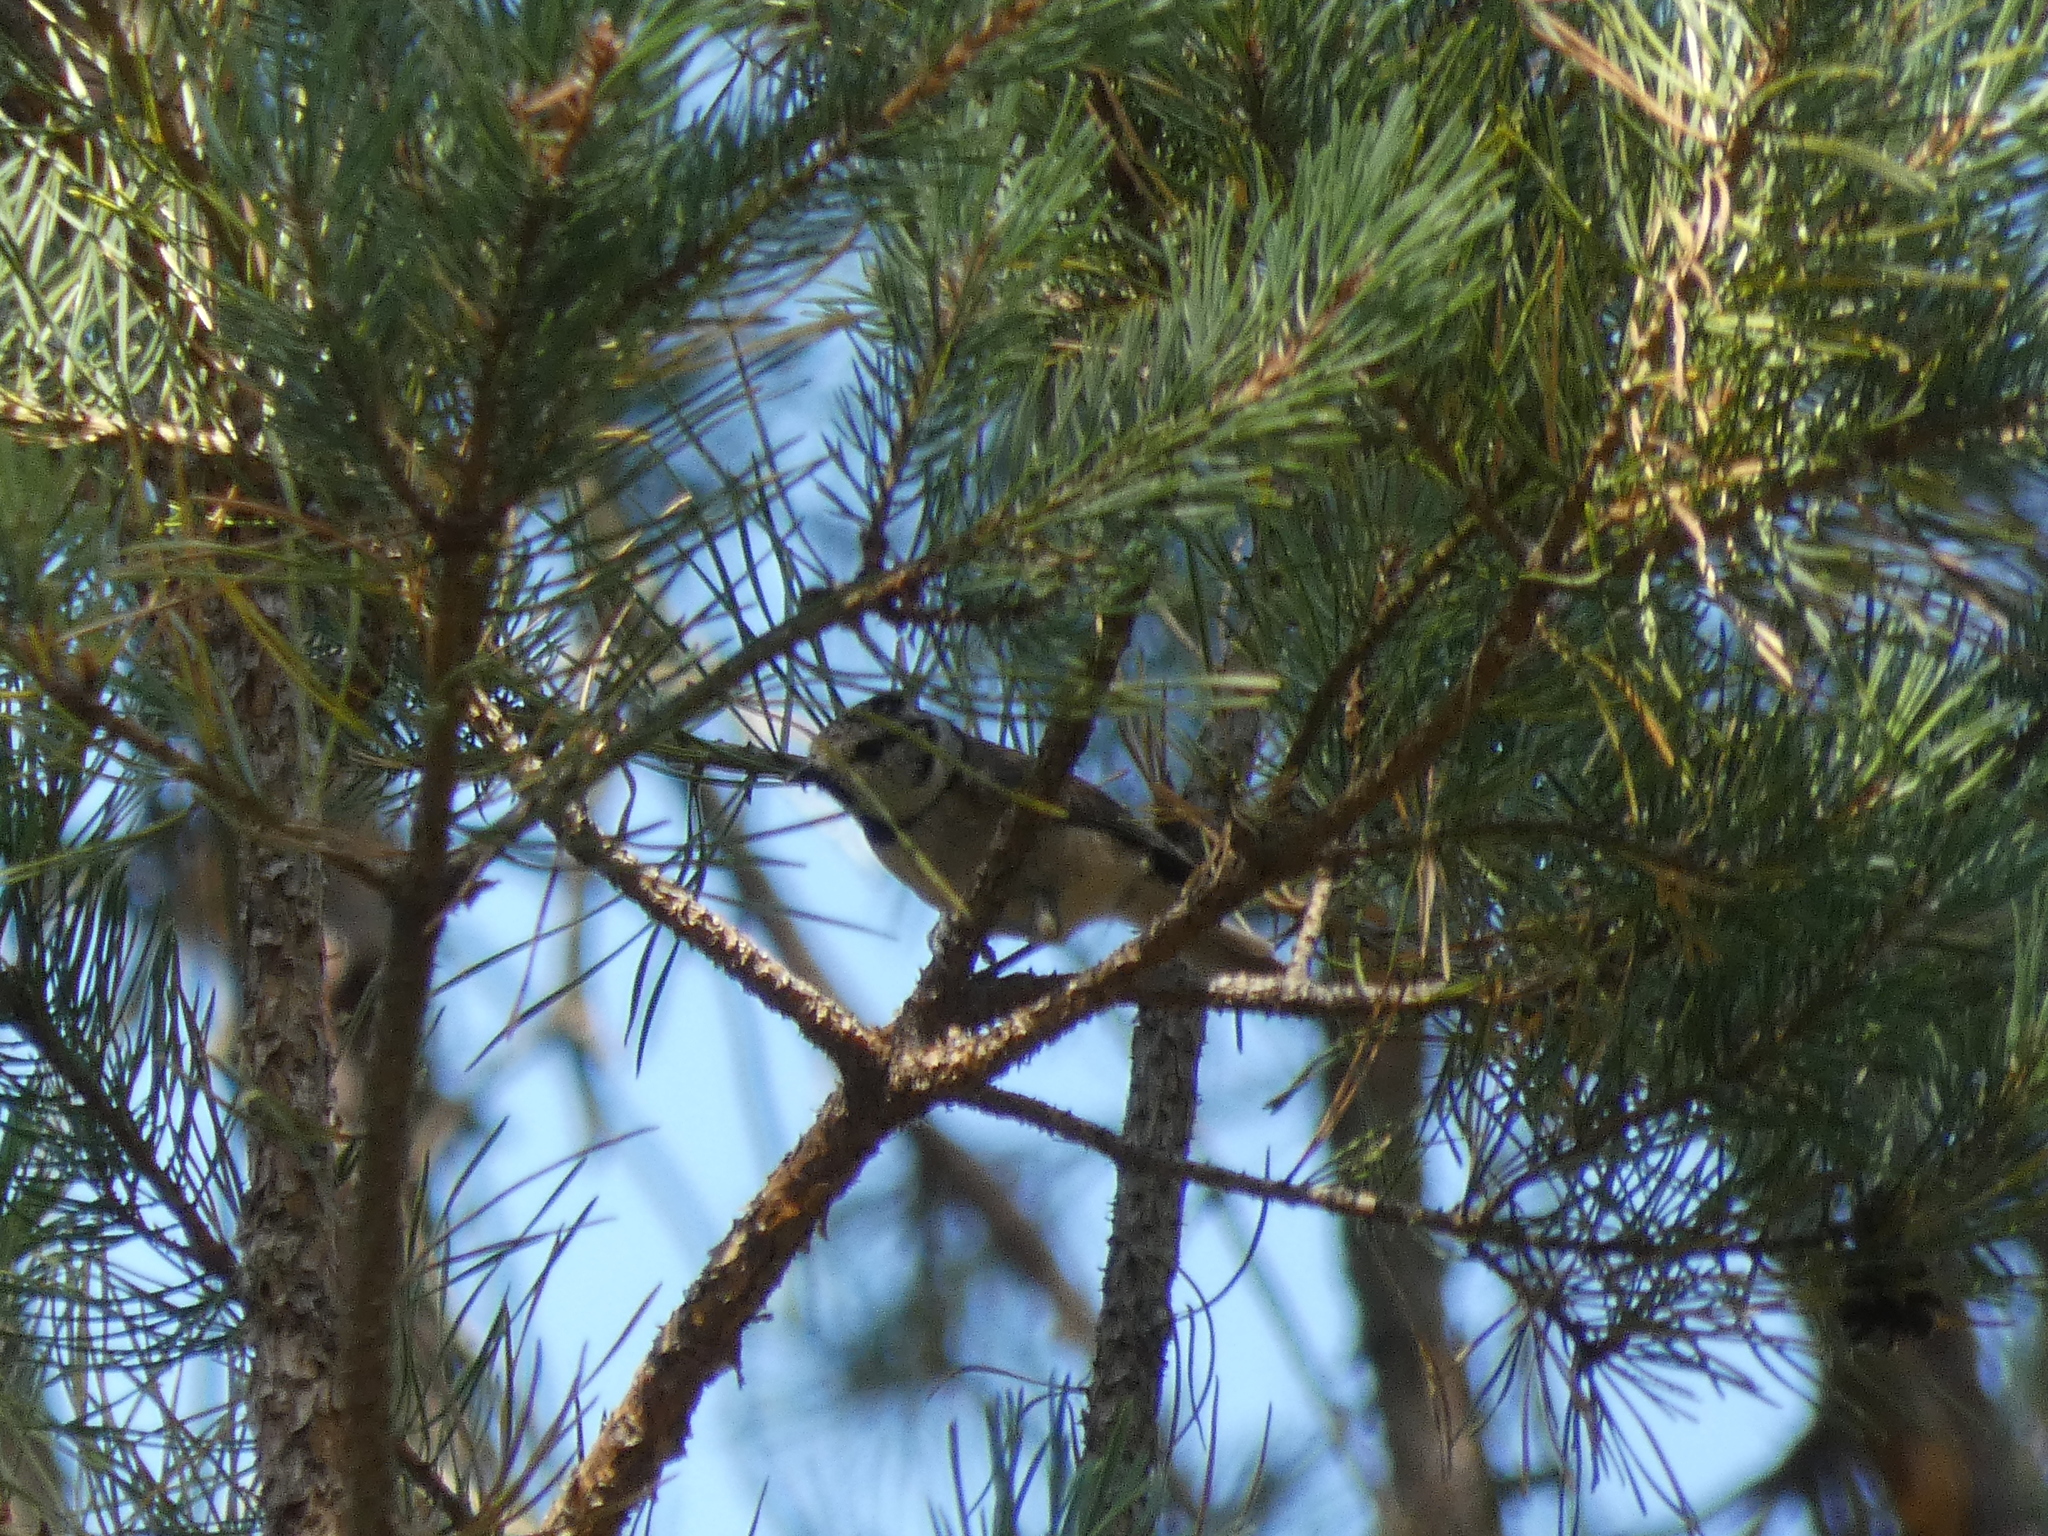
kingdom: Animalia
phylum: Chordata
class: Aves
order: Passeriformes
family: Paridae
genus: Lophophanes
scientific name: Lophophanes cristatus
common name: European crested tit
